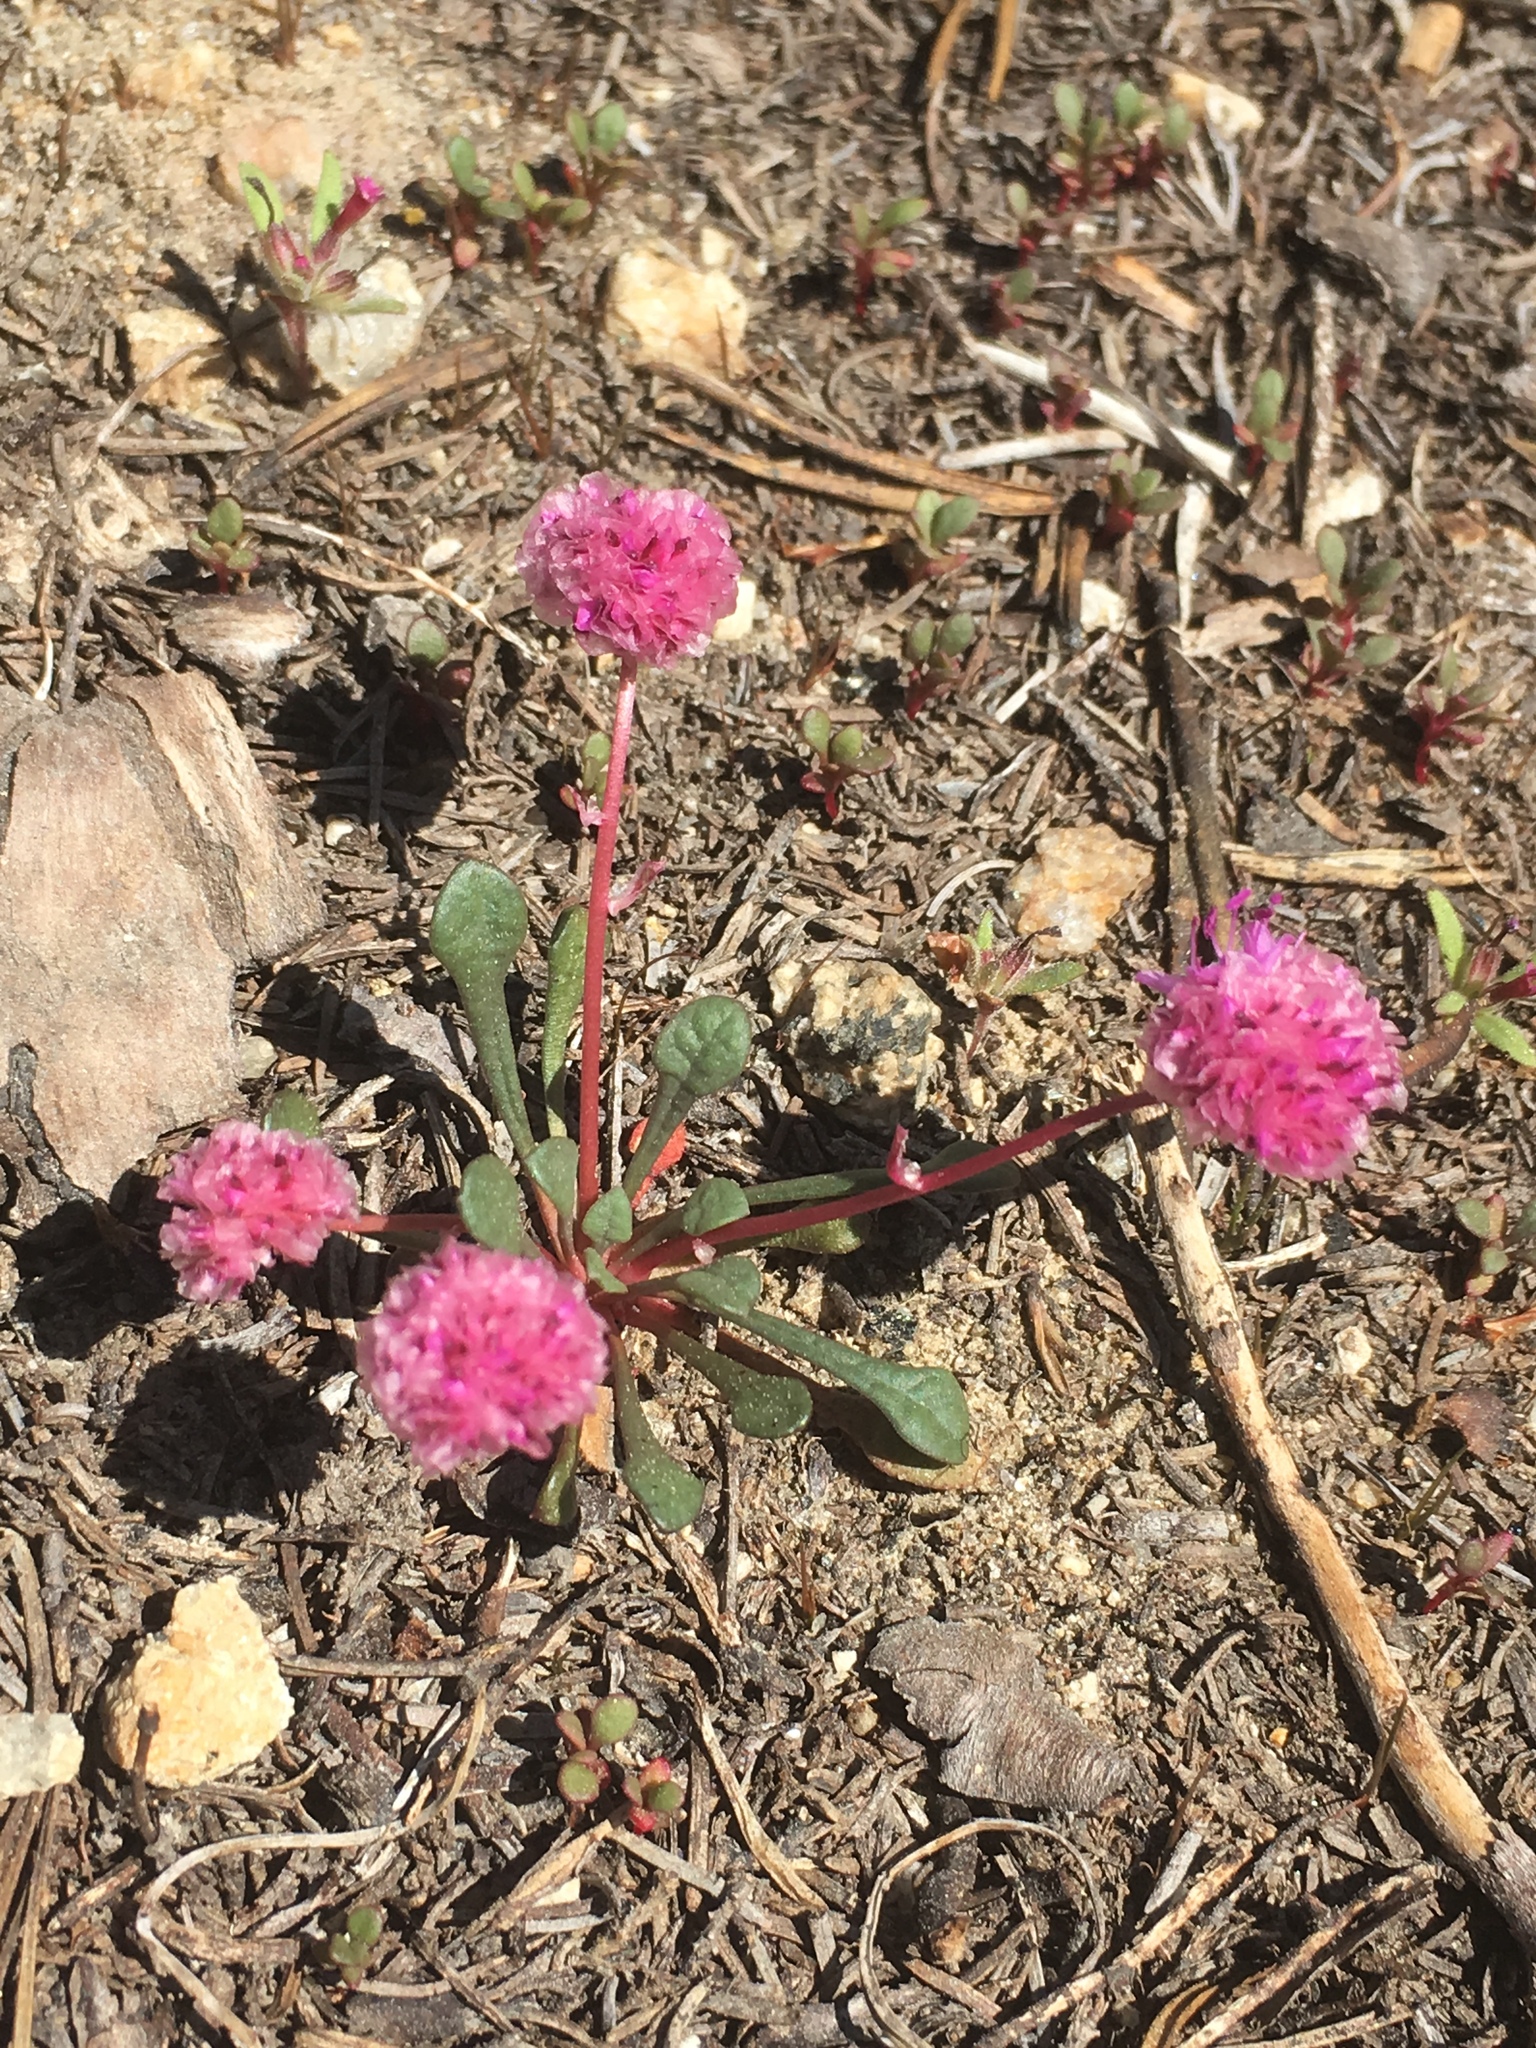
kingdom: Plantae
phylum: Tracheophyta
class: Magnoliopsida
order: Caryophyllales
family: Montiaceae
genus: Calyptridium
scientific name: Calyptridium monospermum
